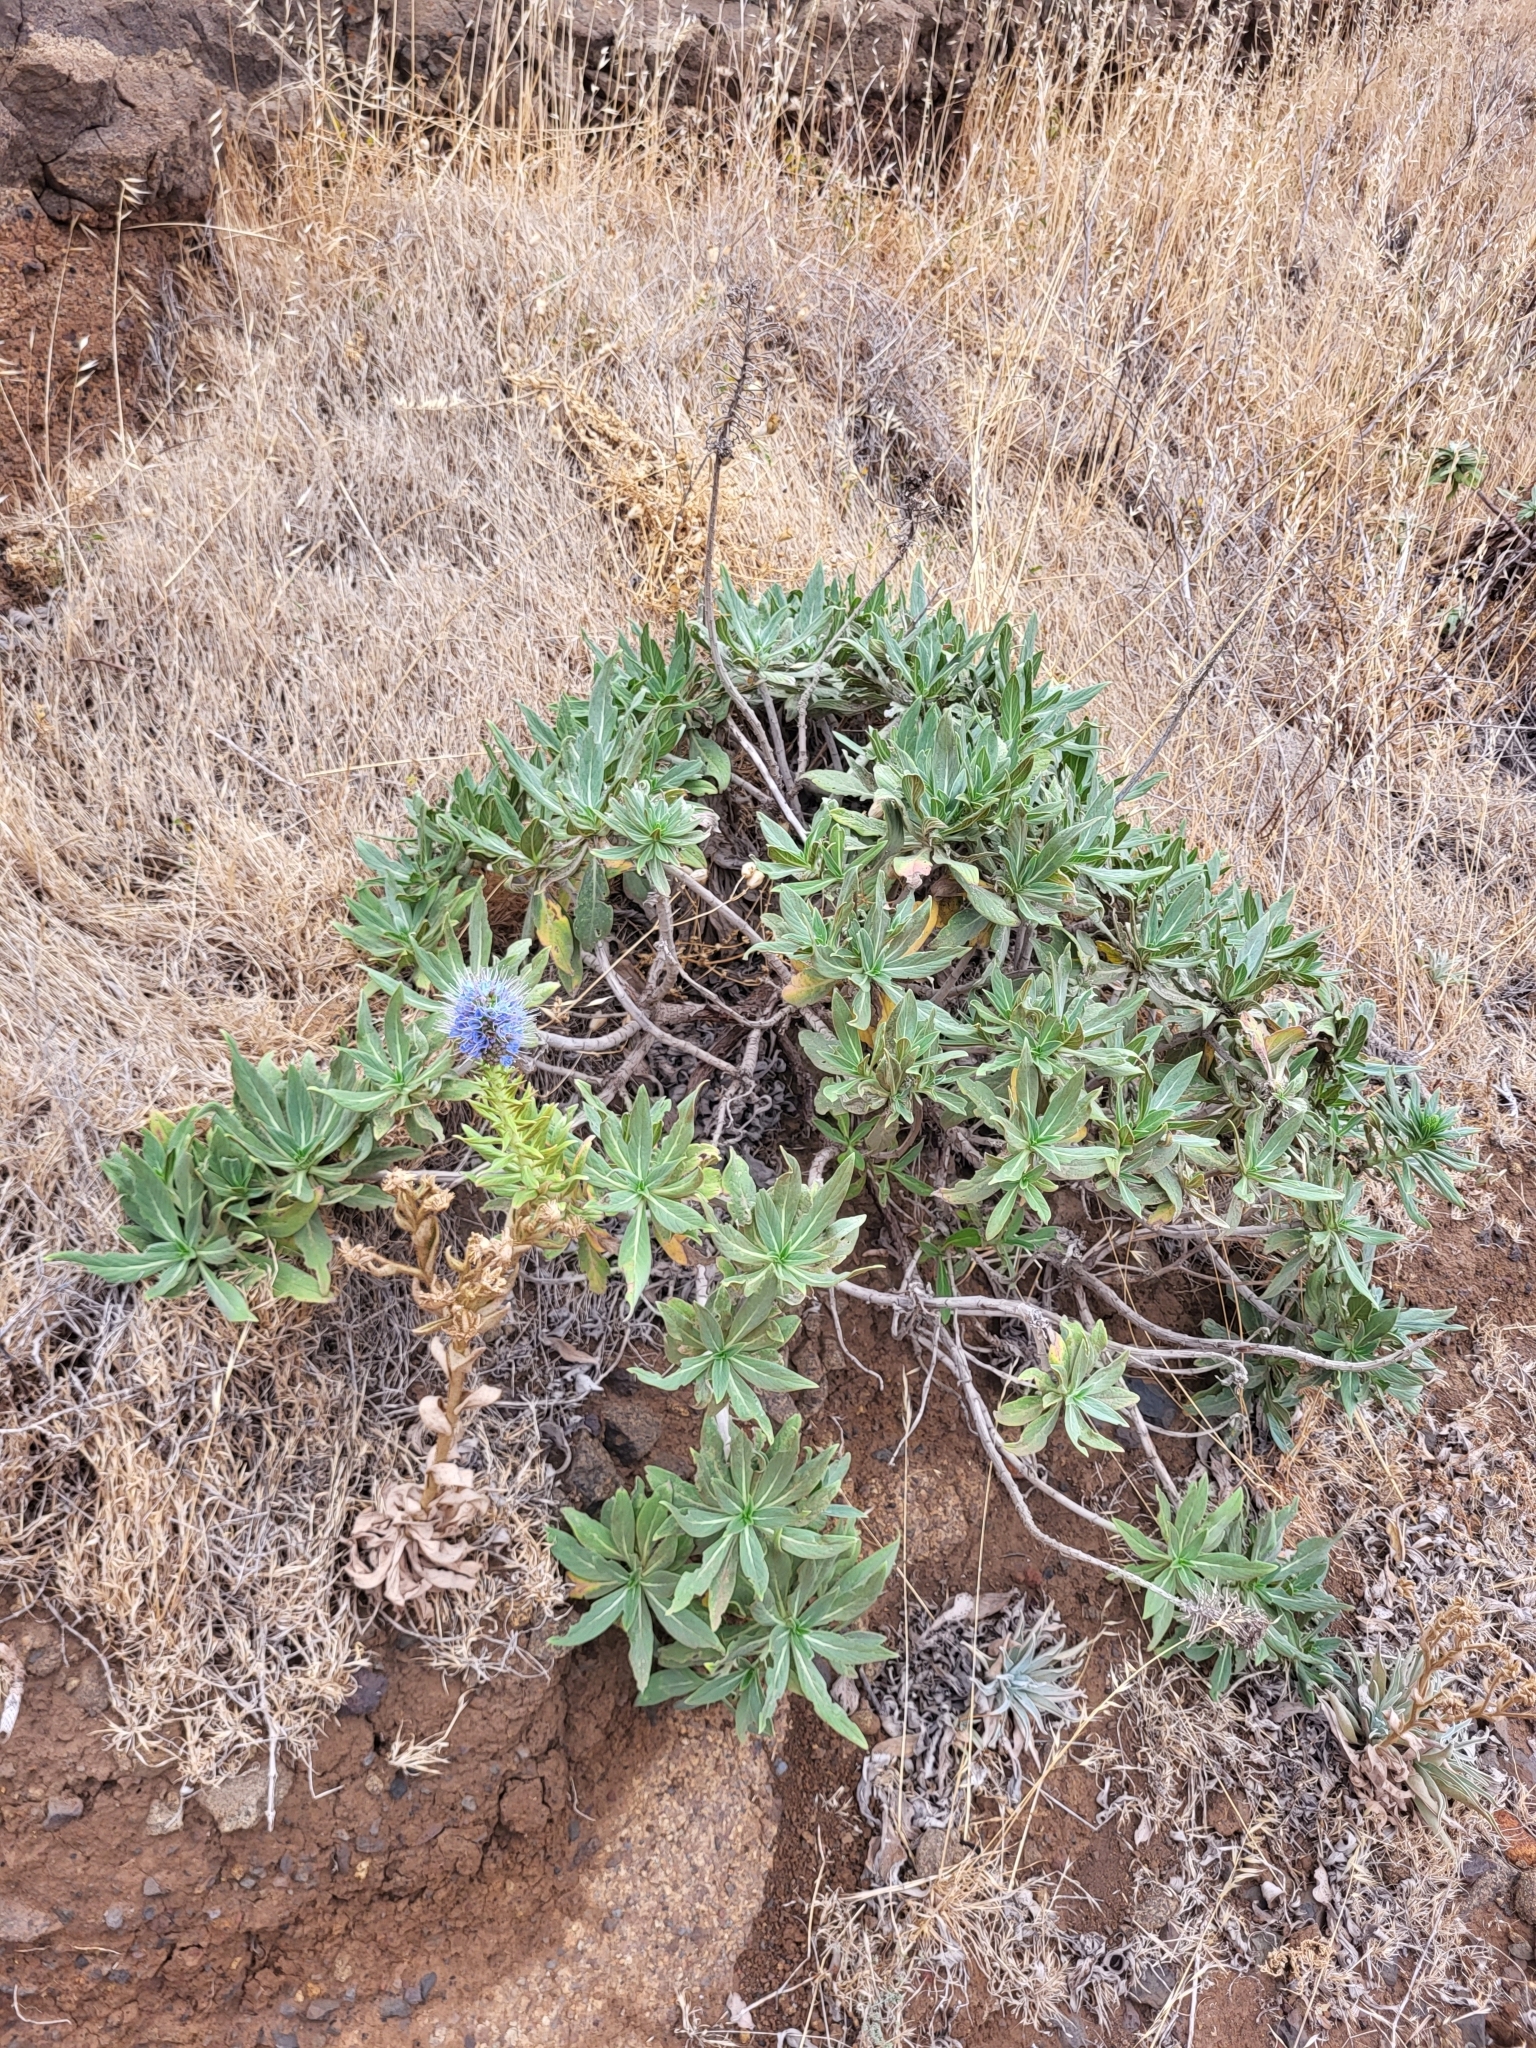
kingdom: Plantae
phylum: Tracheophyta
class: Magnoliopsida
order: Boraginales
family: Boraginaceae
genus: Echium
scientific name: Echium nervosum
